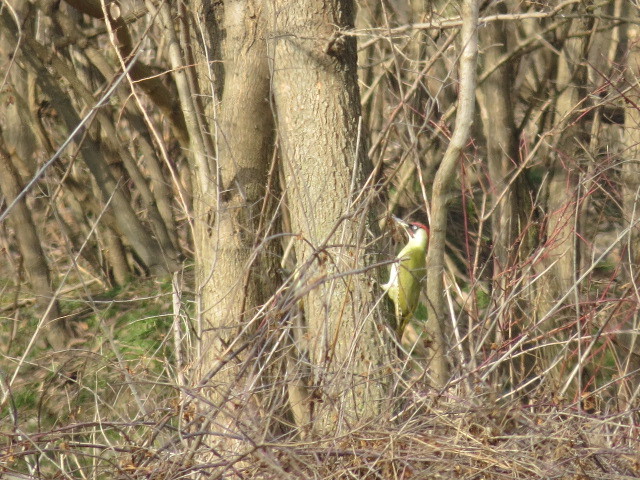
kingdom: Animalia
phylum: Chordata
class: Aves
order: Piciformes
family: Picidae
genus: Picus
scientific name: Picus viridis
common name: European green woodpecker
